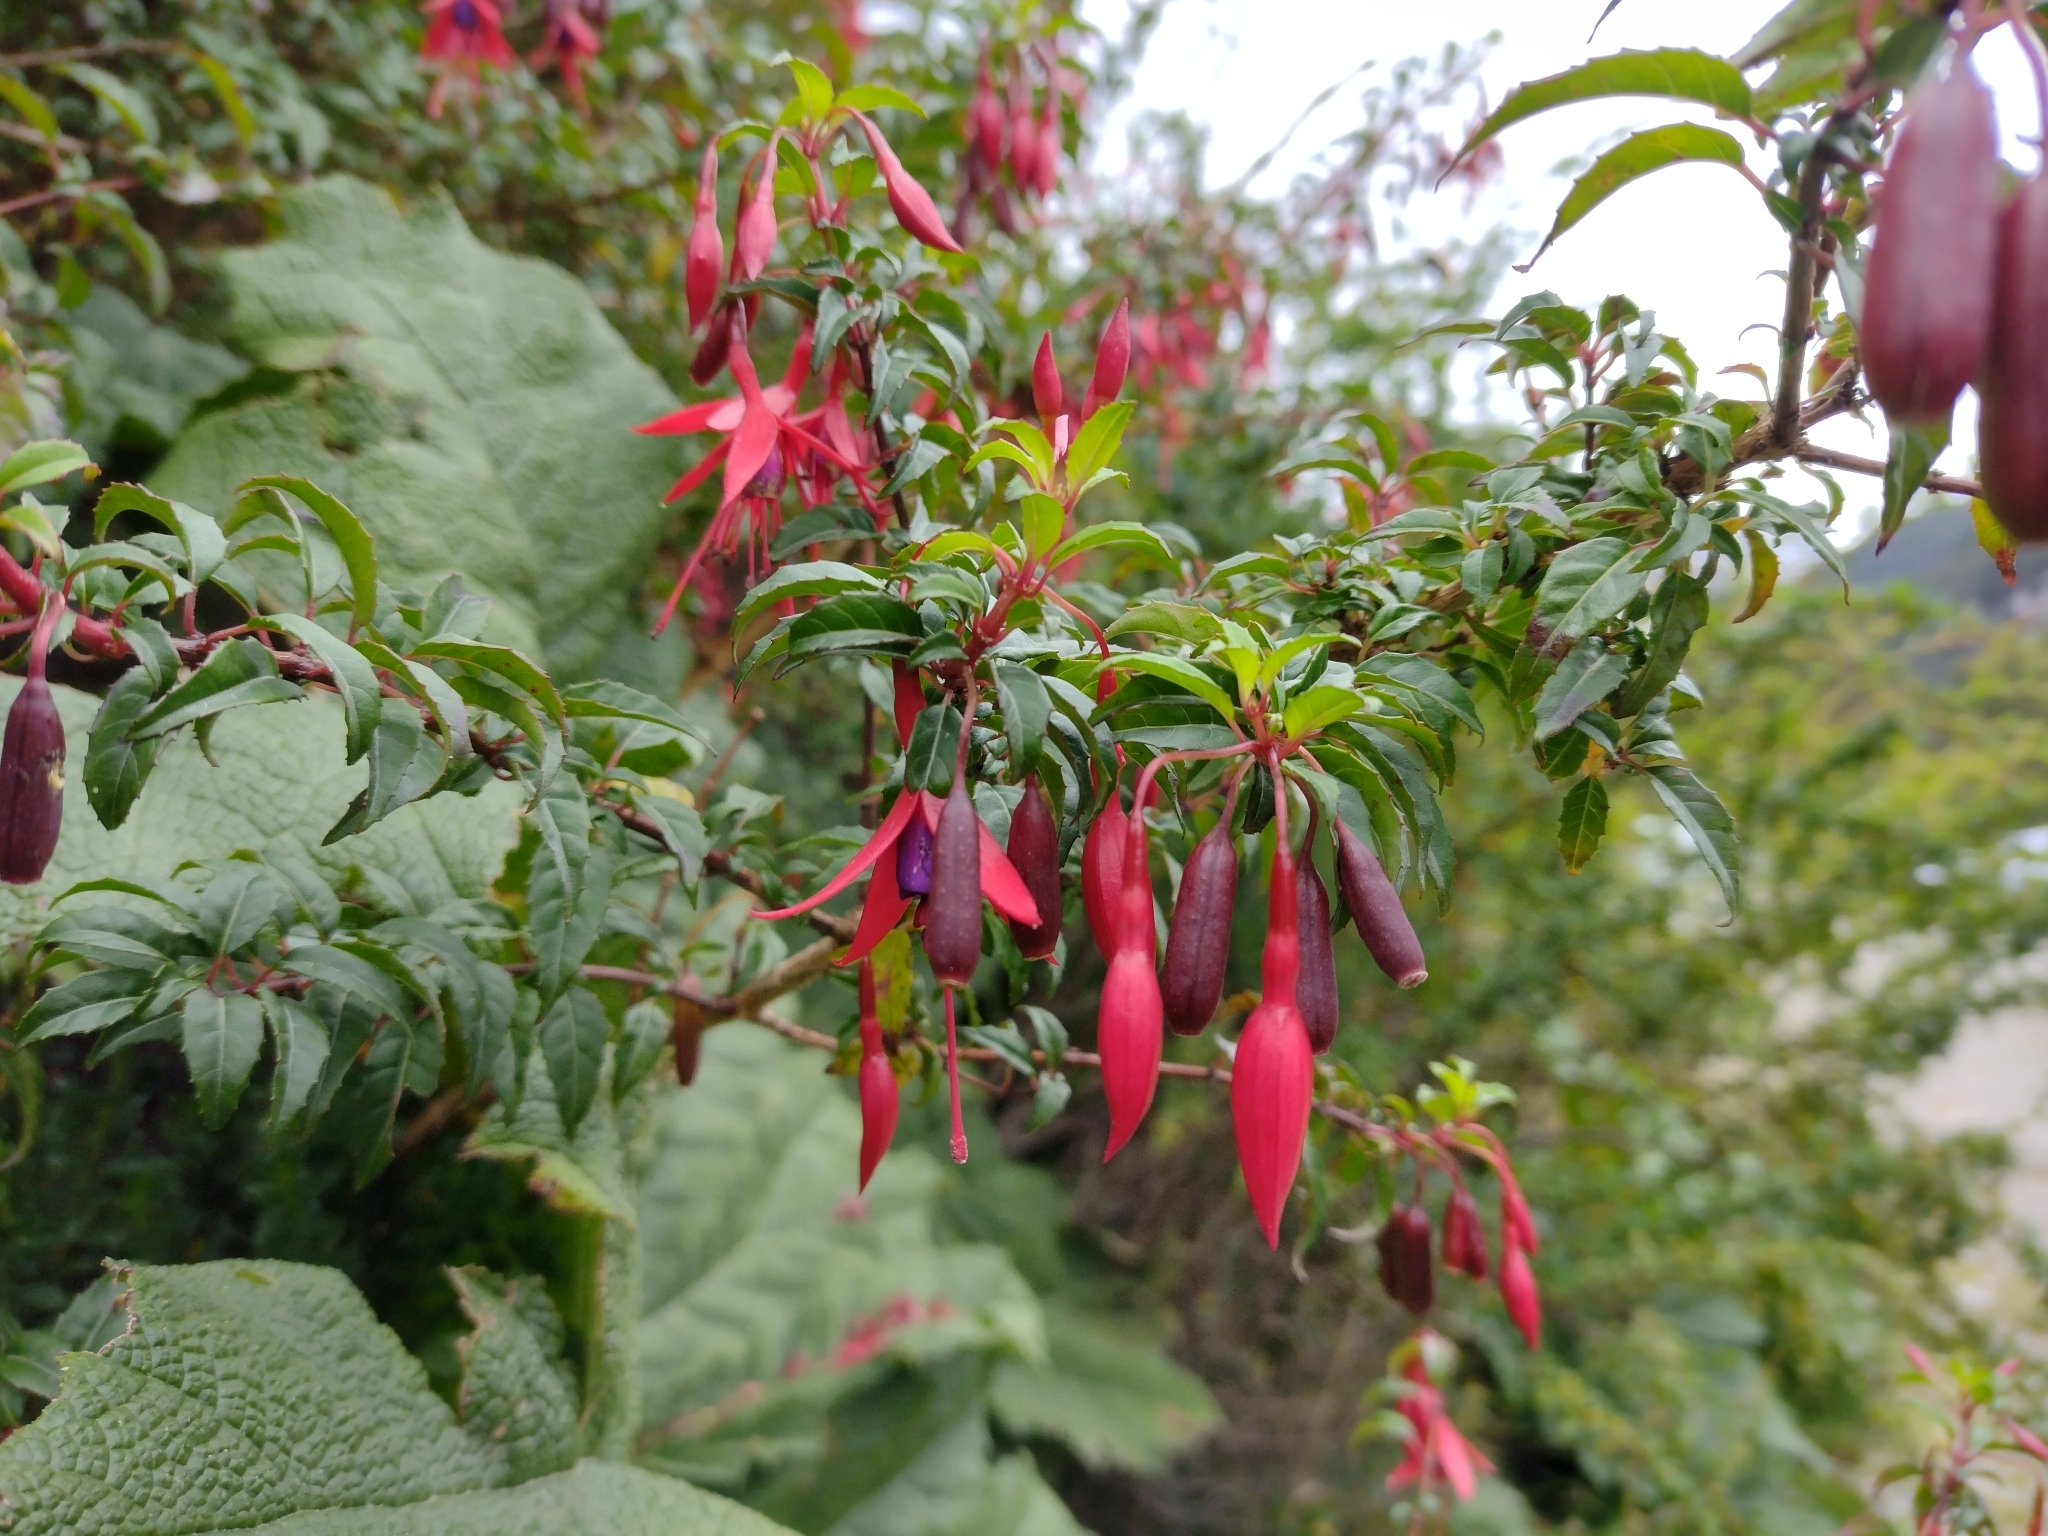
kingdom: Plantae
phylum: Tracheophyta
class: Magnoliopsida
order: Myrtales
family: Onagraceae
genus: Fuchsia
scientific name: Fuchsia magellanica
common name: Hardy fuchsia
